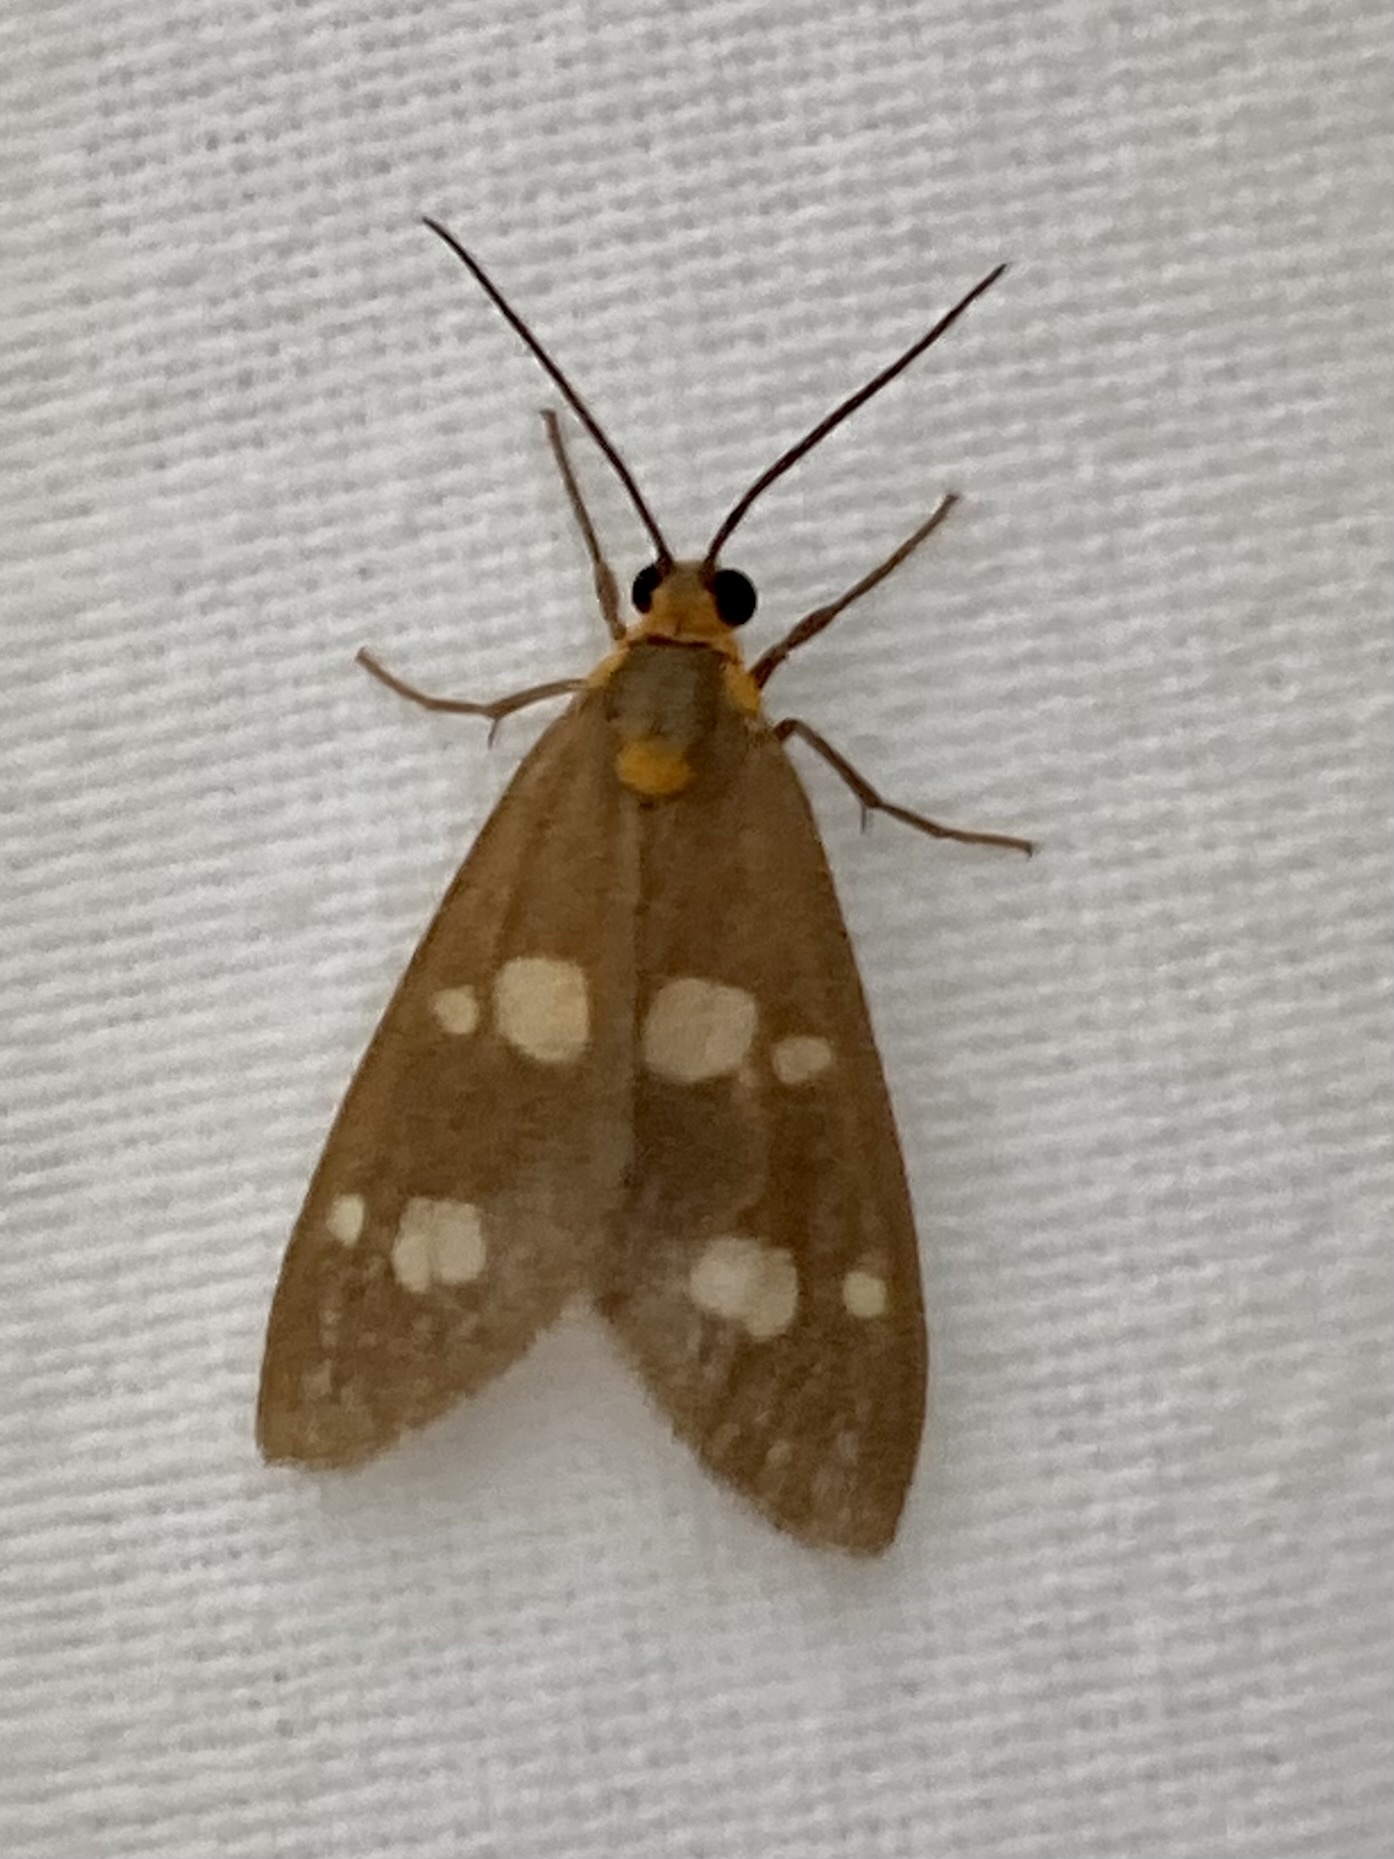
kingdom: Animalia
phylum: Arthropoda
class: Insecta
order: Lepidoptera
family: Erebidae
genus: Dysauxes
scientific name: Dysauxes punctata
